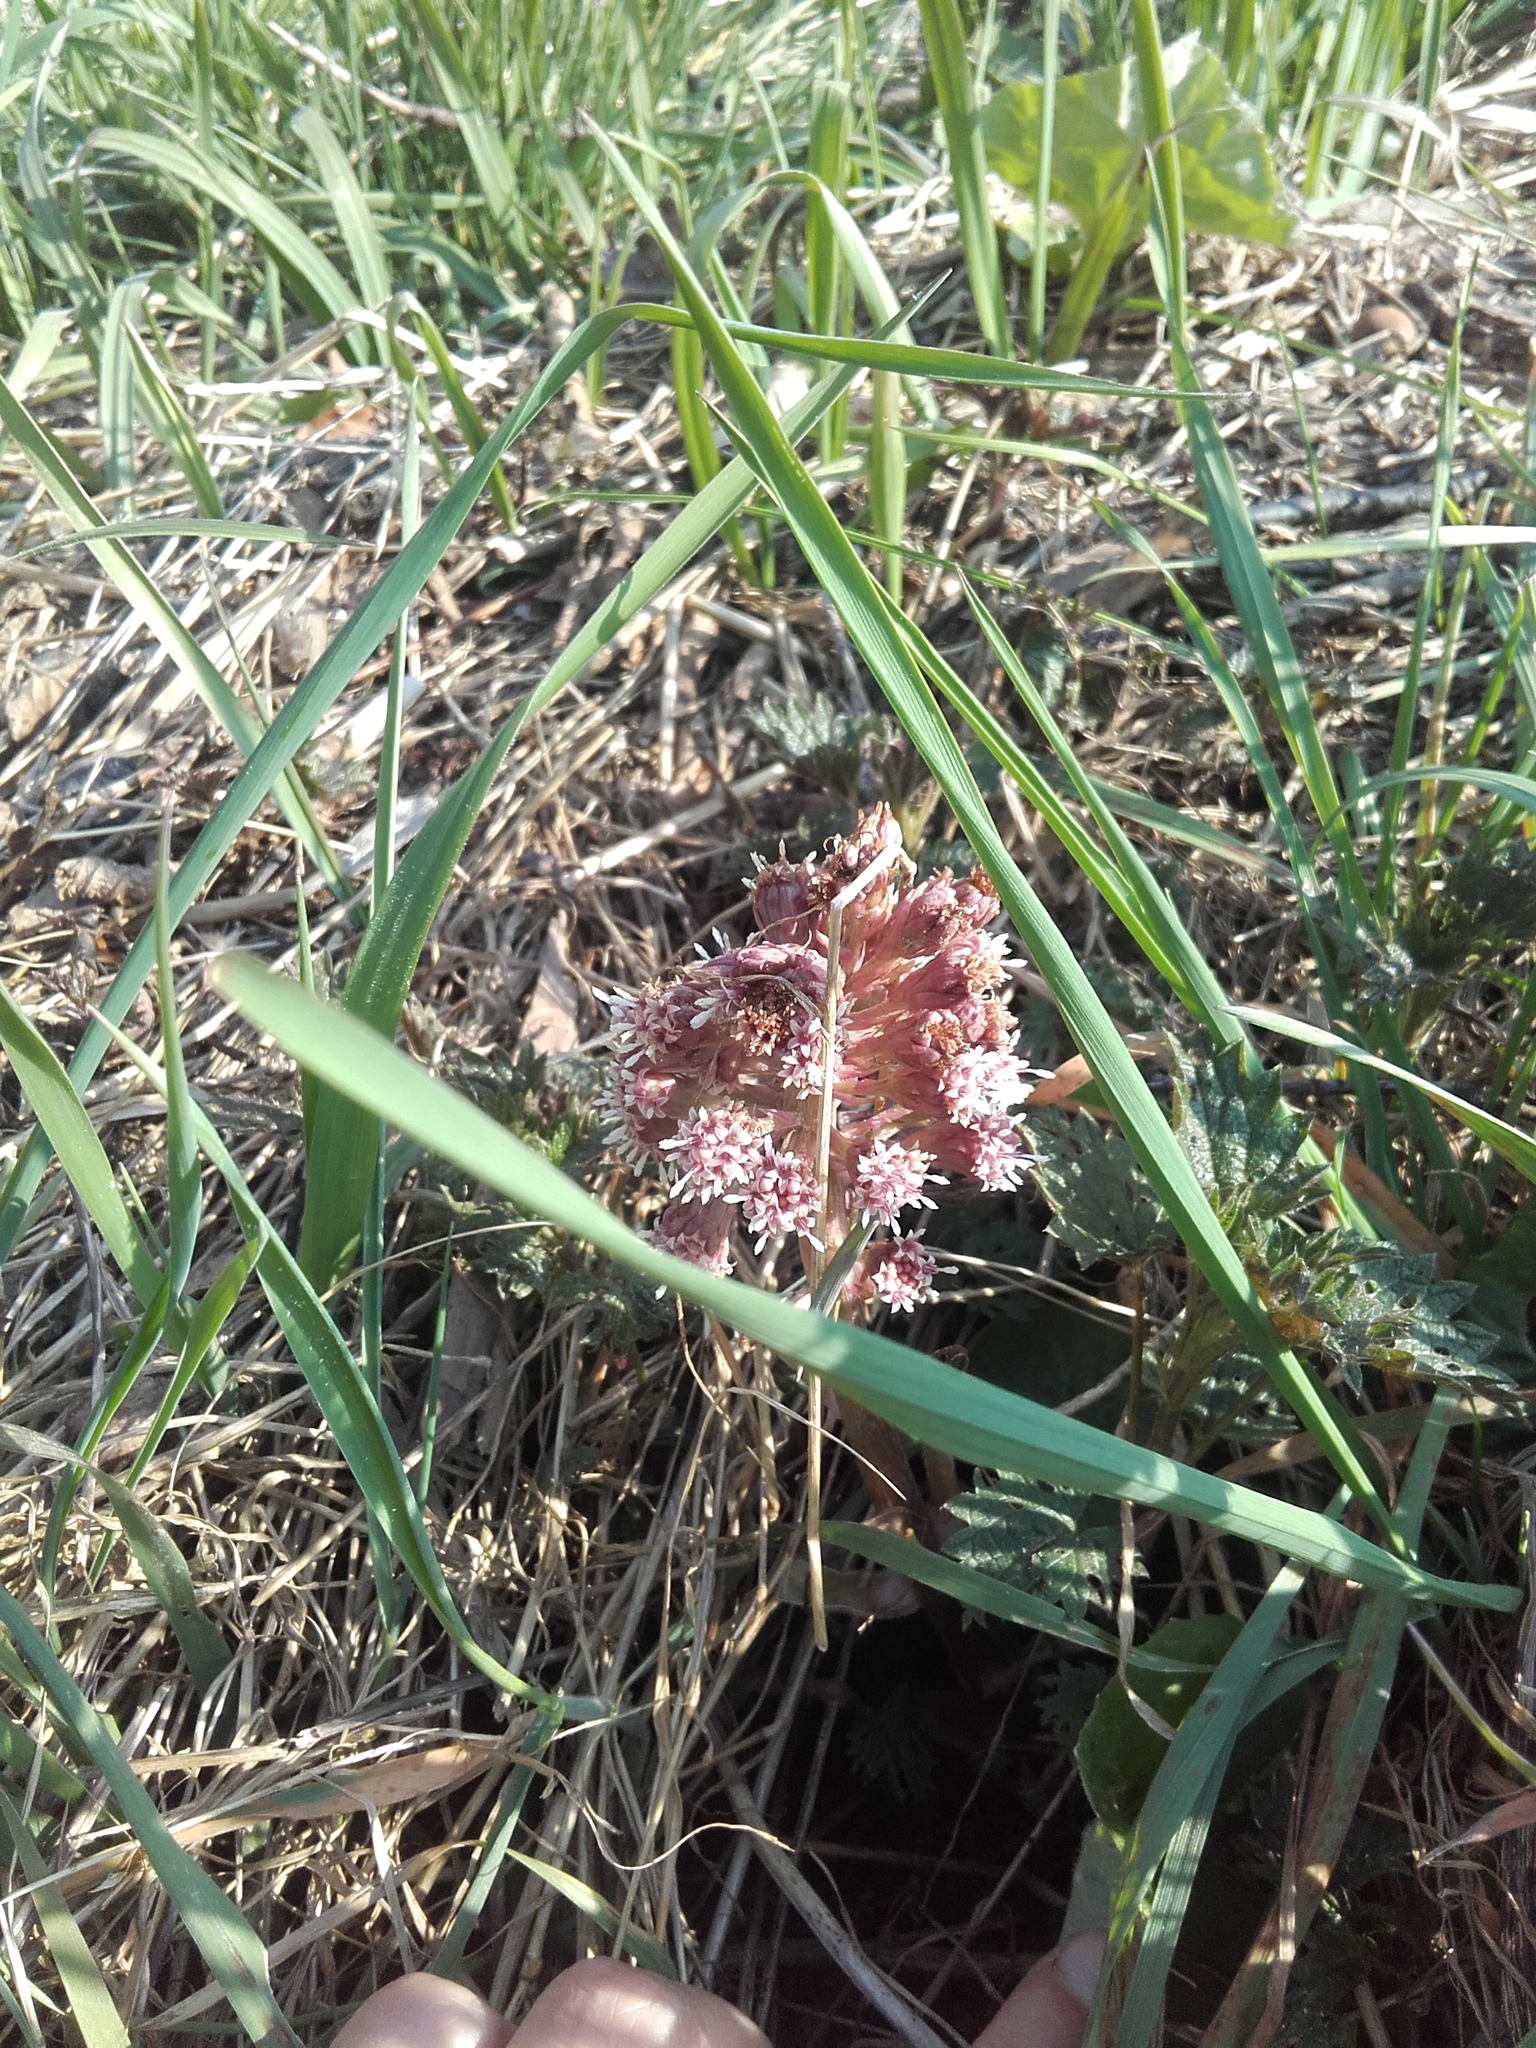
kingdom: Plantae
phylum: Tracheophyta
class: Magnoliopsida
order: Asterales
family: Asteraceae
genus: Petasites
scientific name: Petasites hybridus
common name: Butterbur
